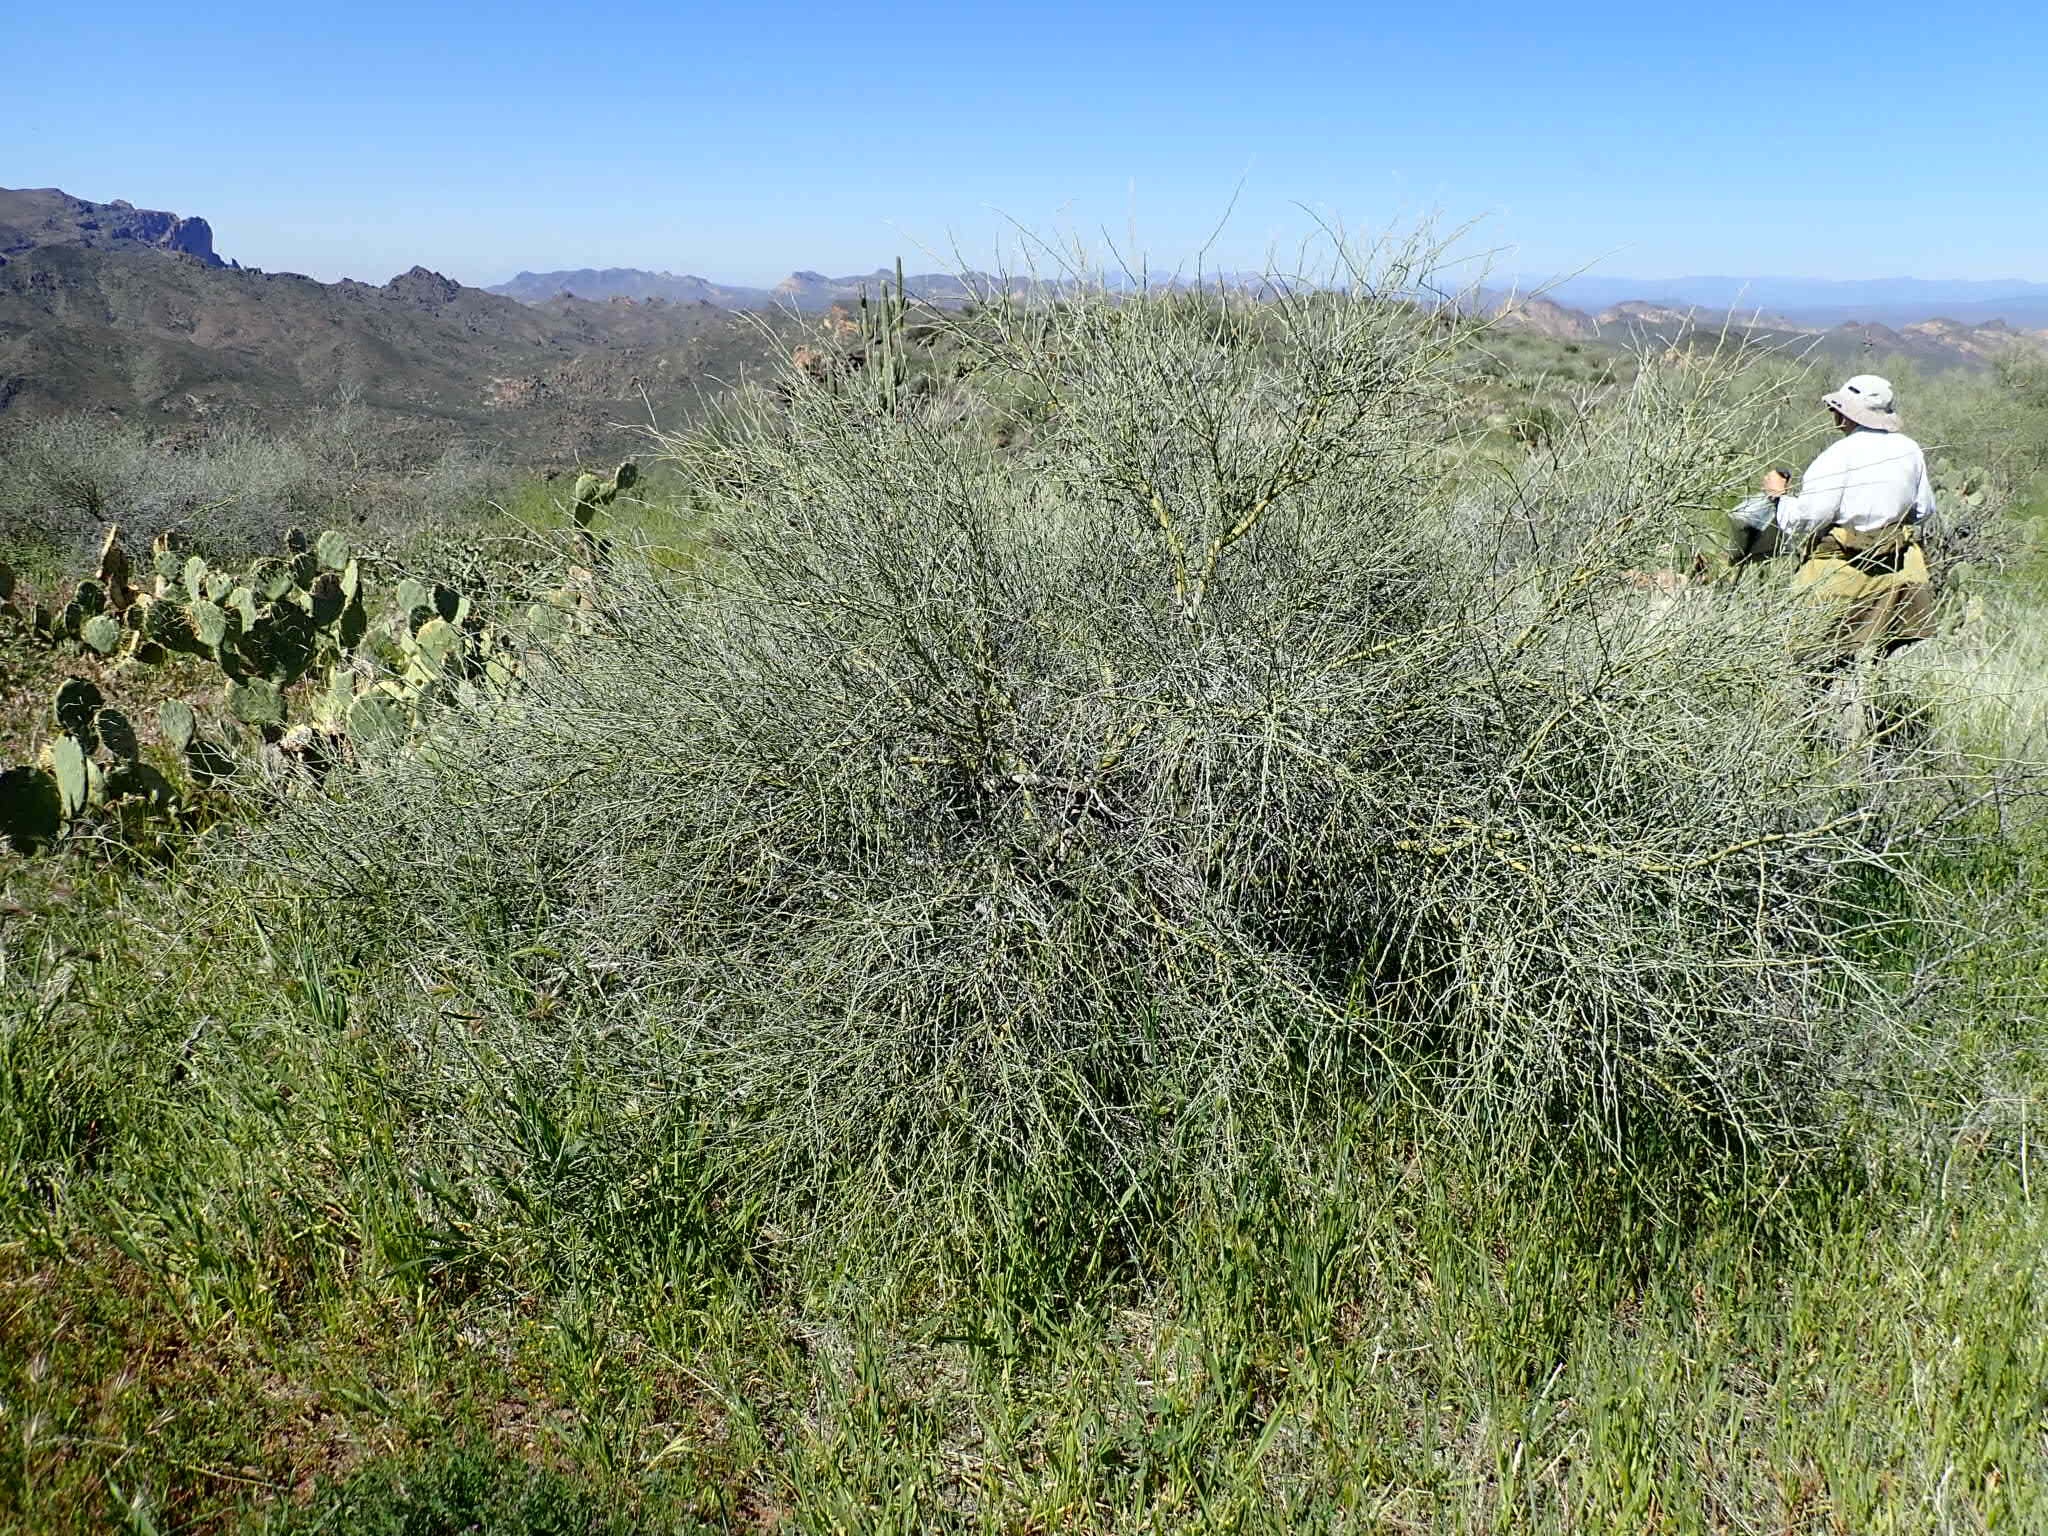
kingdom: Plantae
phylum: Tracheophyta
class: Magnoliopsida
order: Fabales
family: Fabaceae
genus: Parkinsonia
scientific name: Parkinsonia florida
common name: Blue paloverde
